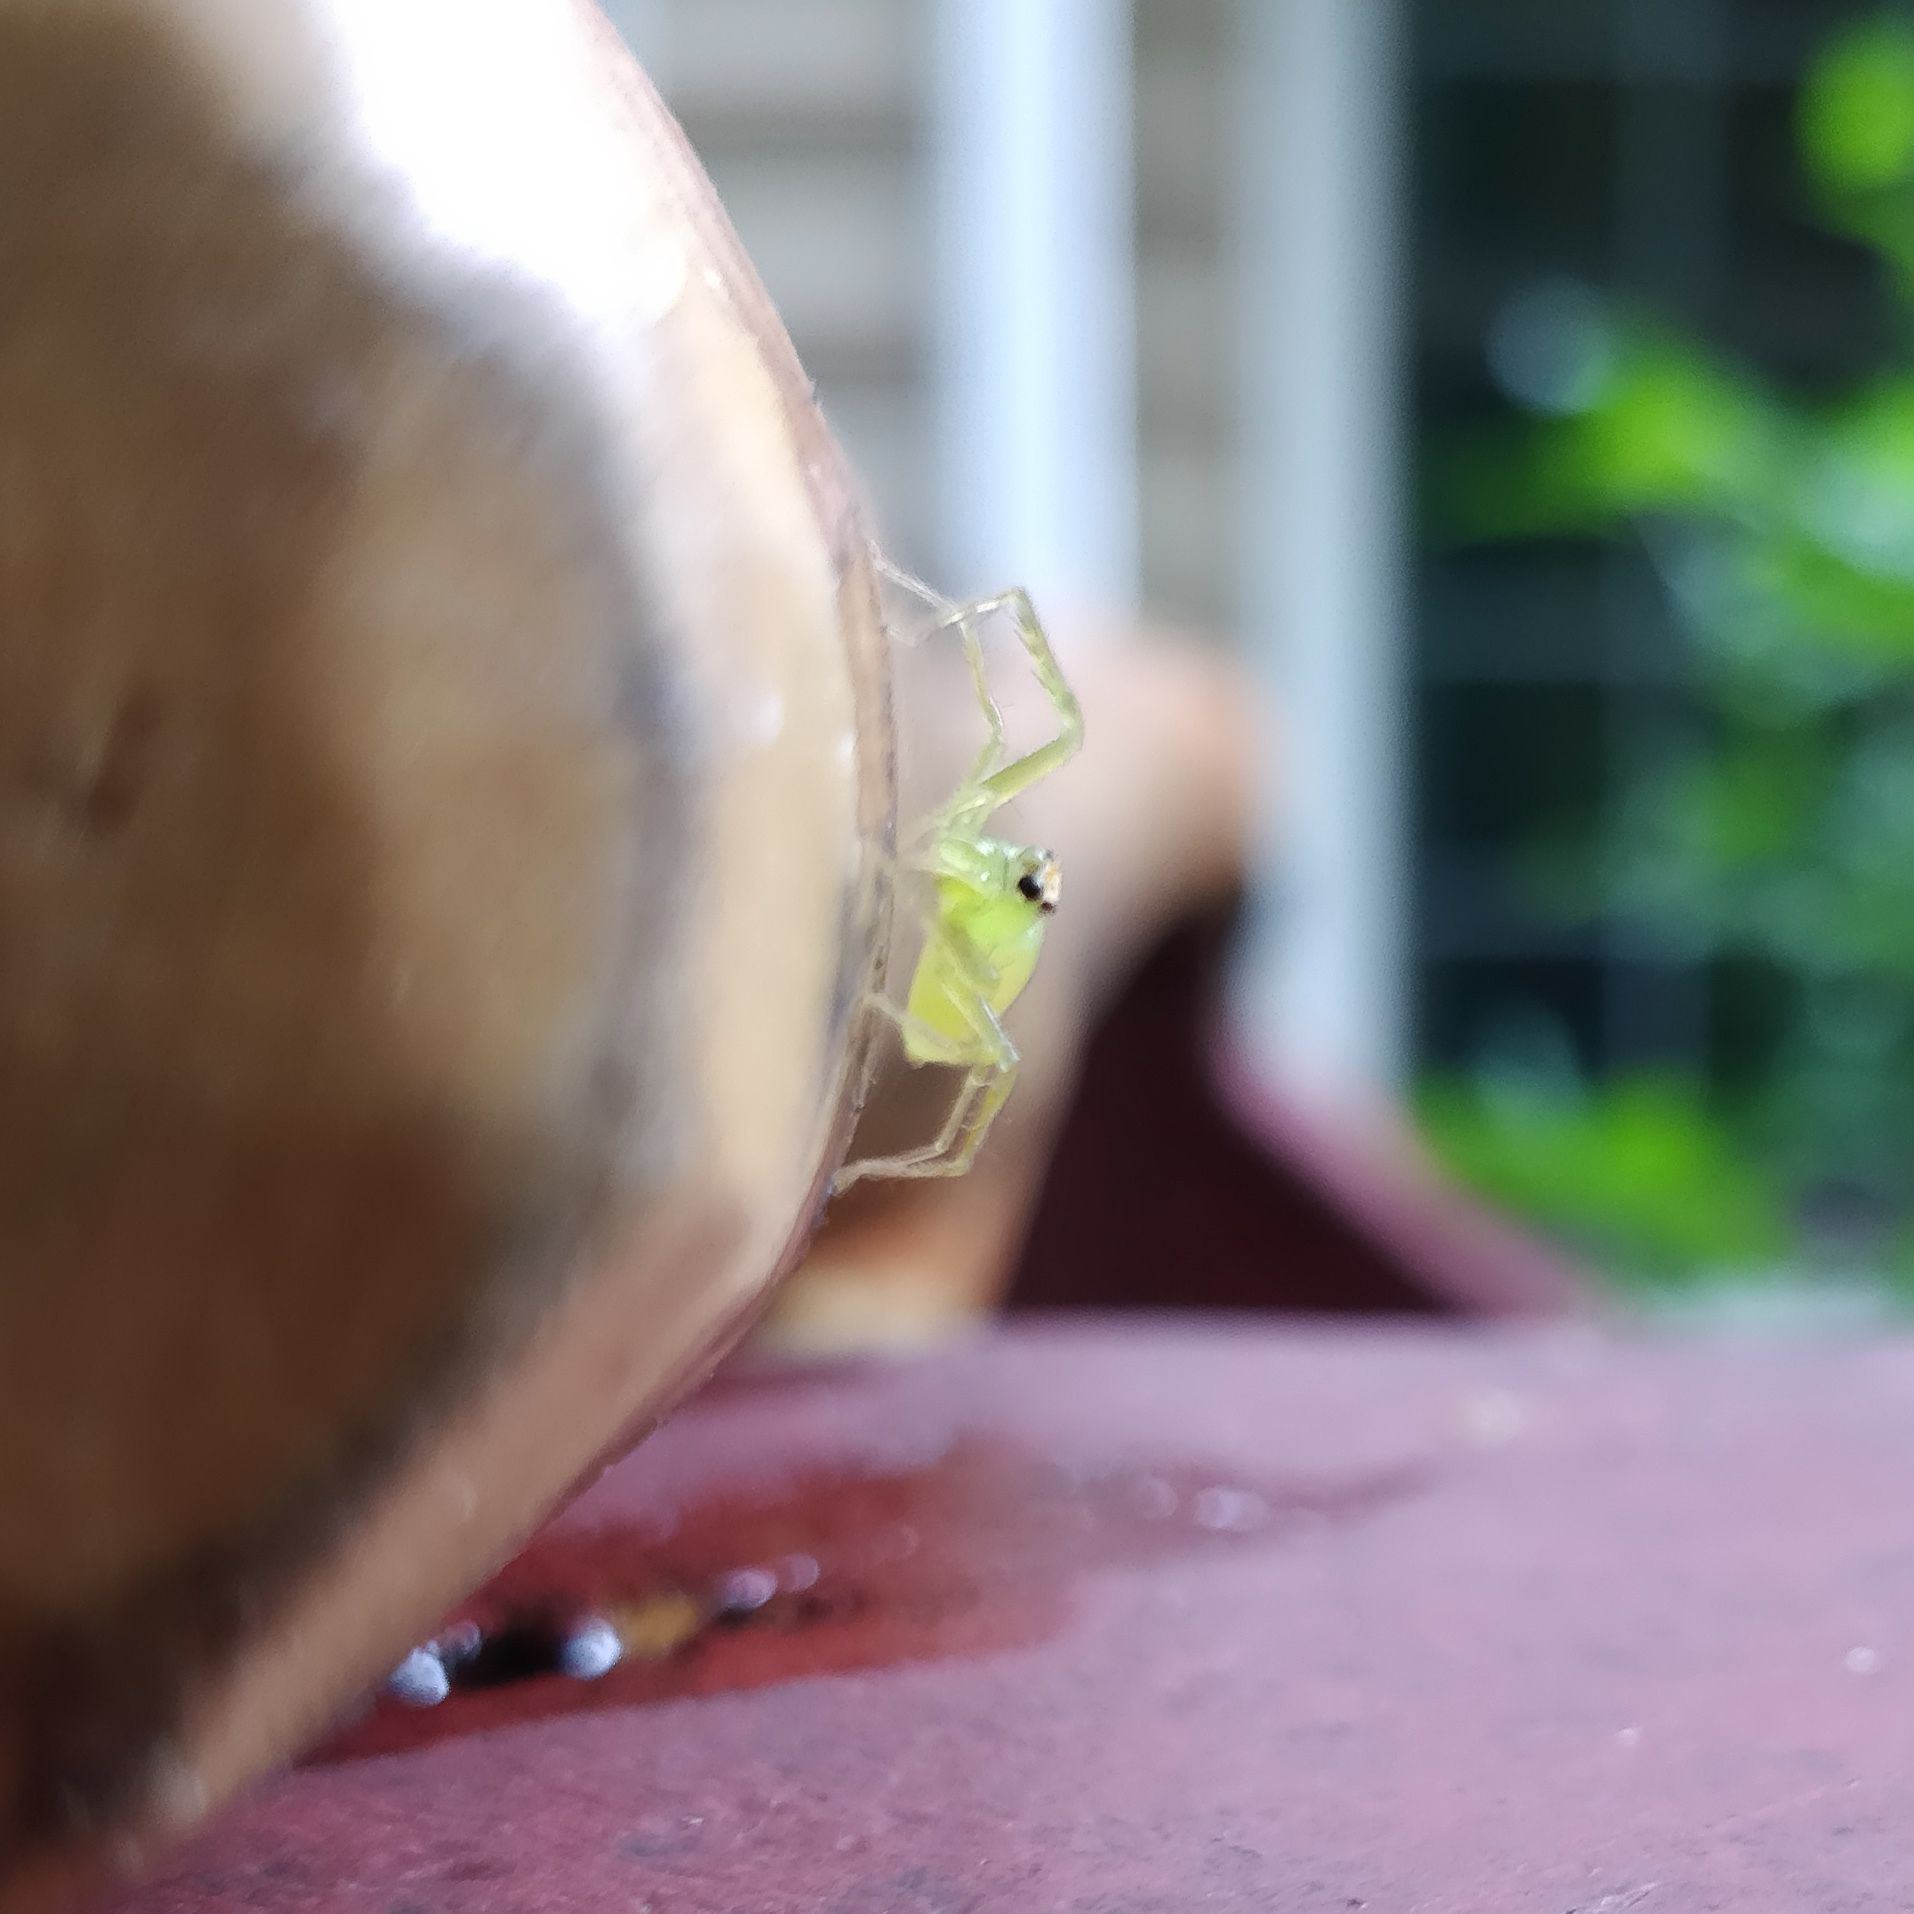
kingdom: Animalia
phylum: Arthropoda
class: Arachnida
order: Araneae
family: Salticidae
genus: Lyssomanes
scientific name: Lyssomanes viridis
